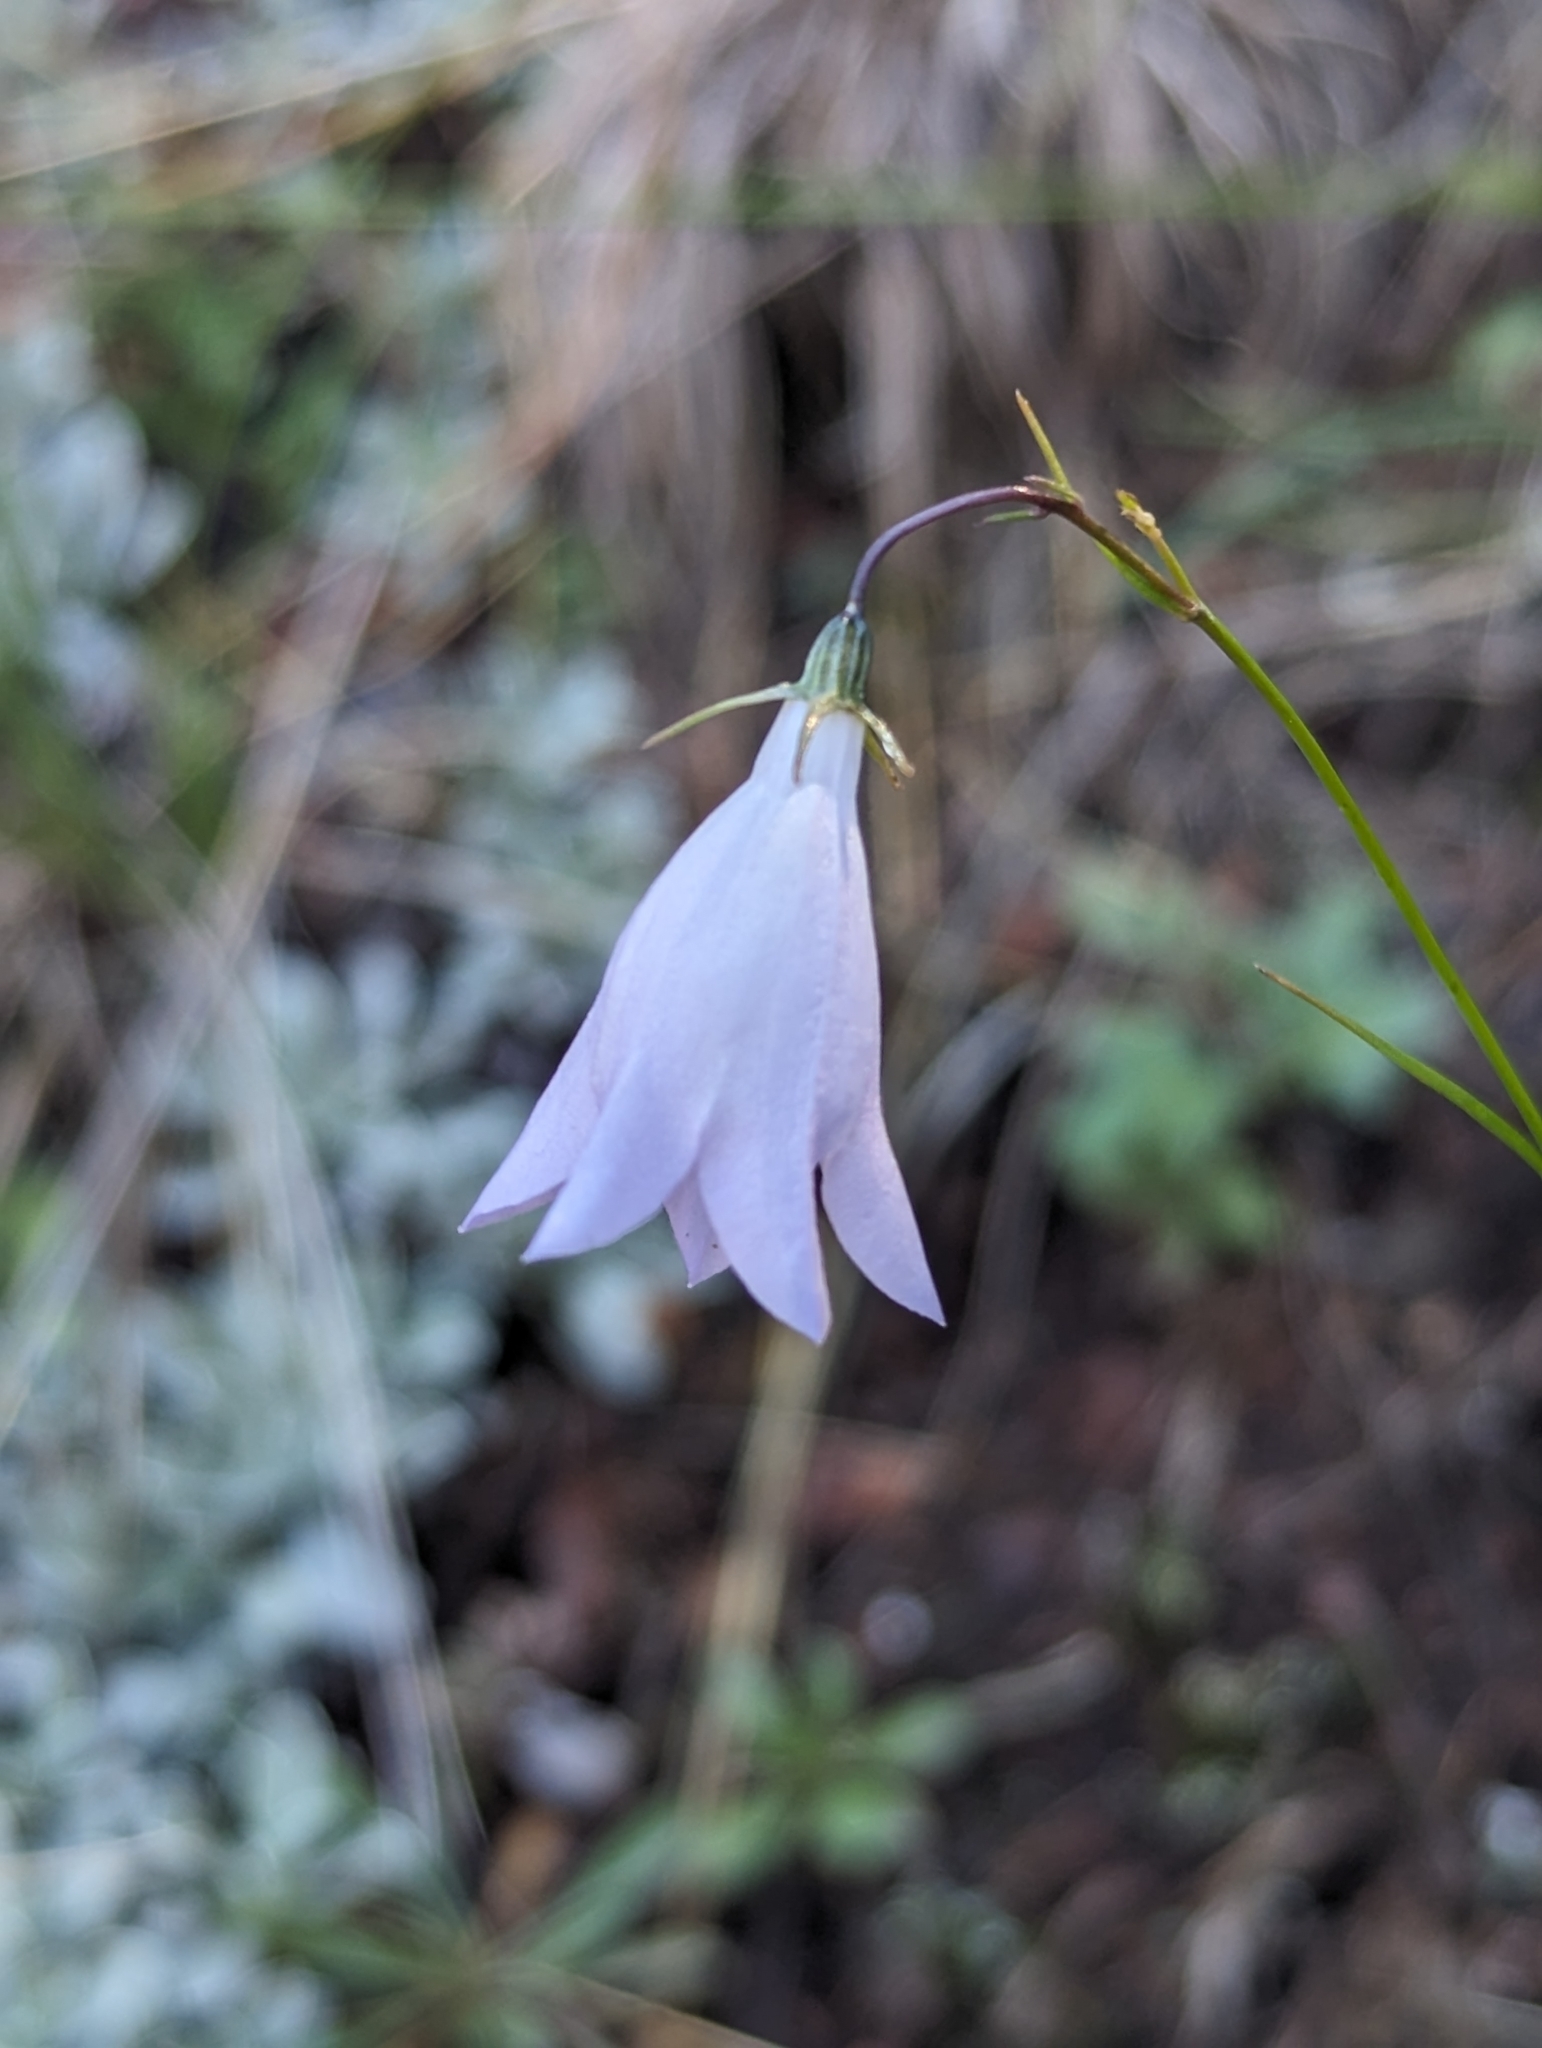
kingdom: Plantae
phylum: Tracheophyta
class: Magnoliopsida
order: Asterales
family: Campanulaceae
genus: Campanula
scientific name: Campanula petiolata
